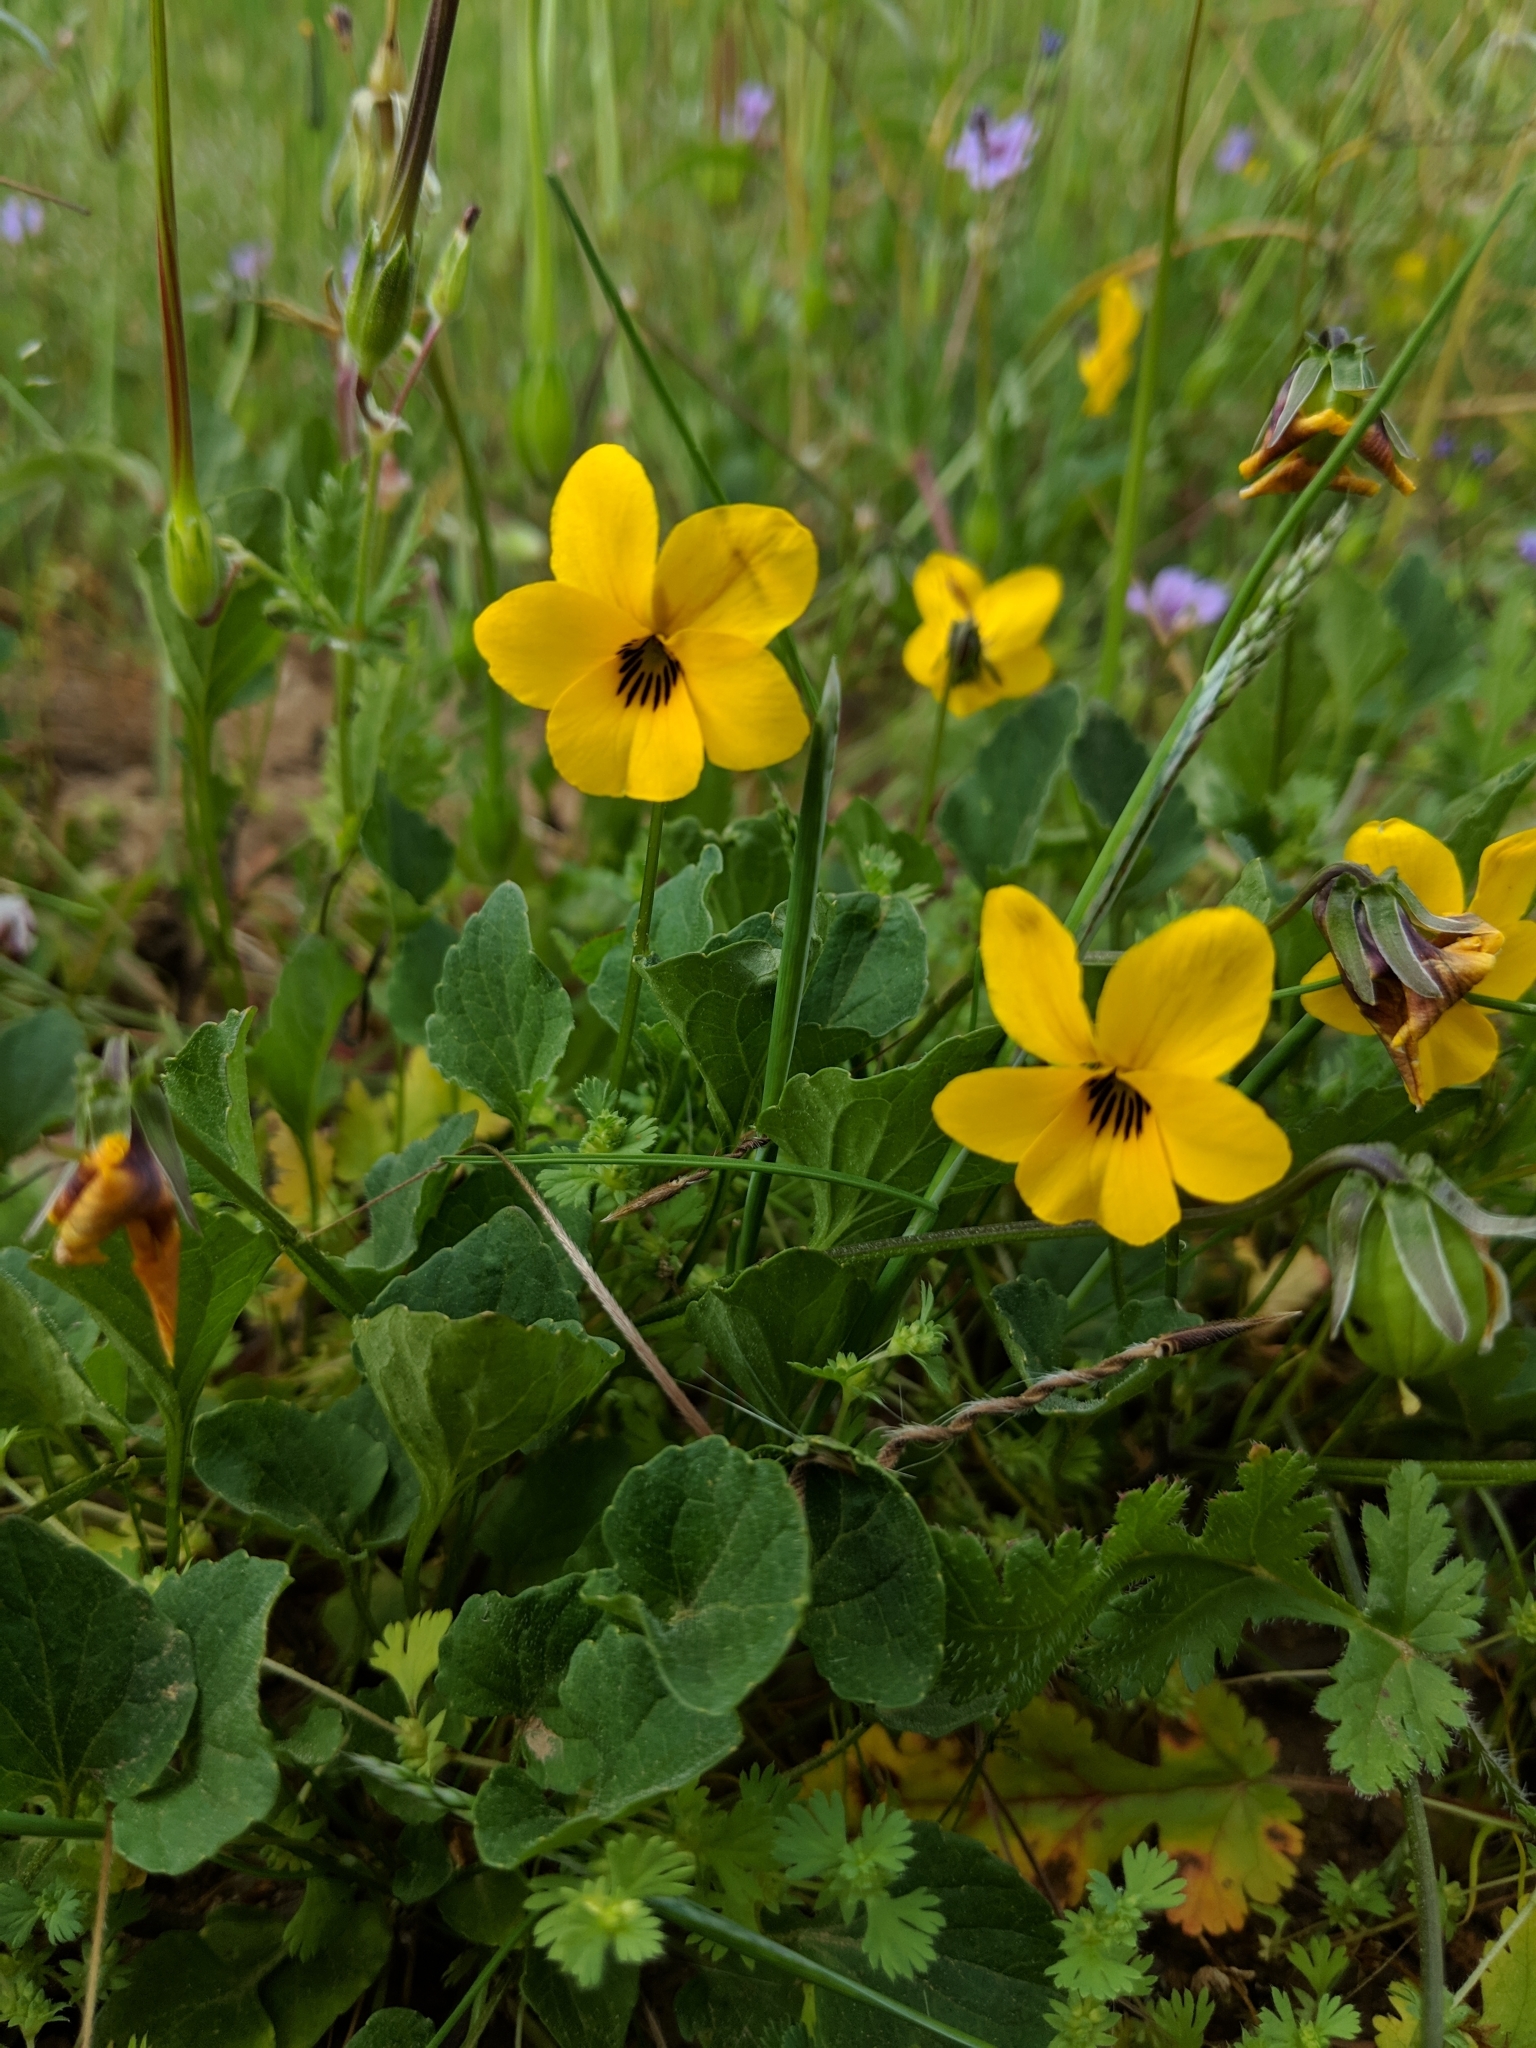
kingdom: Plantae
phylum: Tracheophyta
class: Magnoliopsida
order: Malpighiales
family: Violaceae
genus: Viola
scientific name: Viola pedunculata
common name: California golden violet
